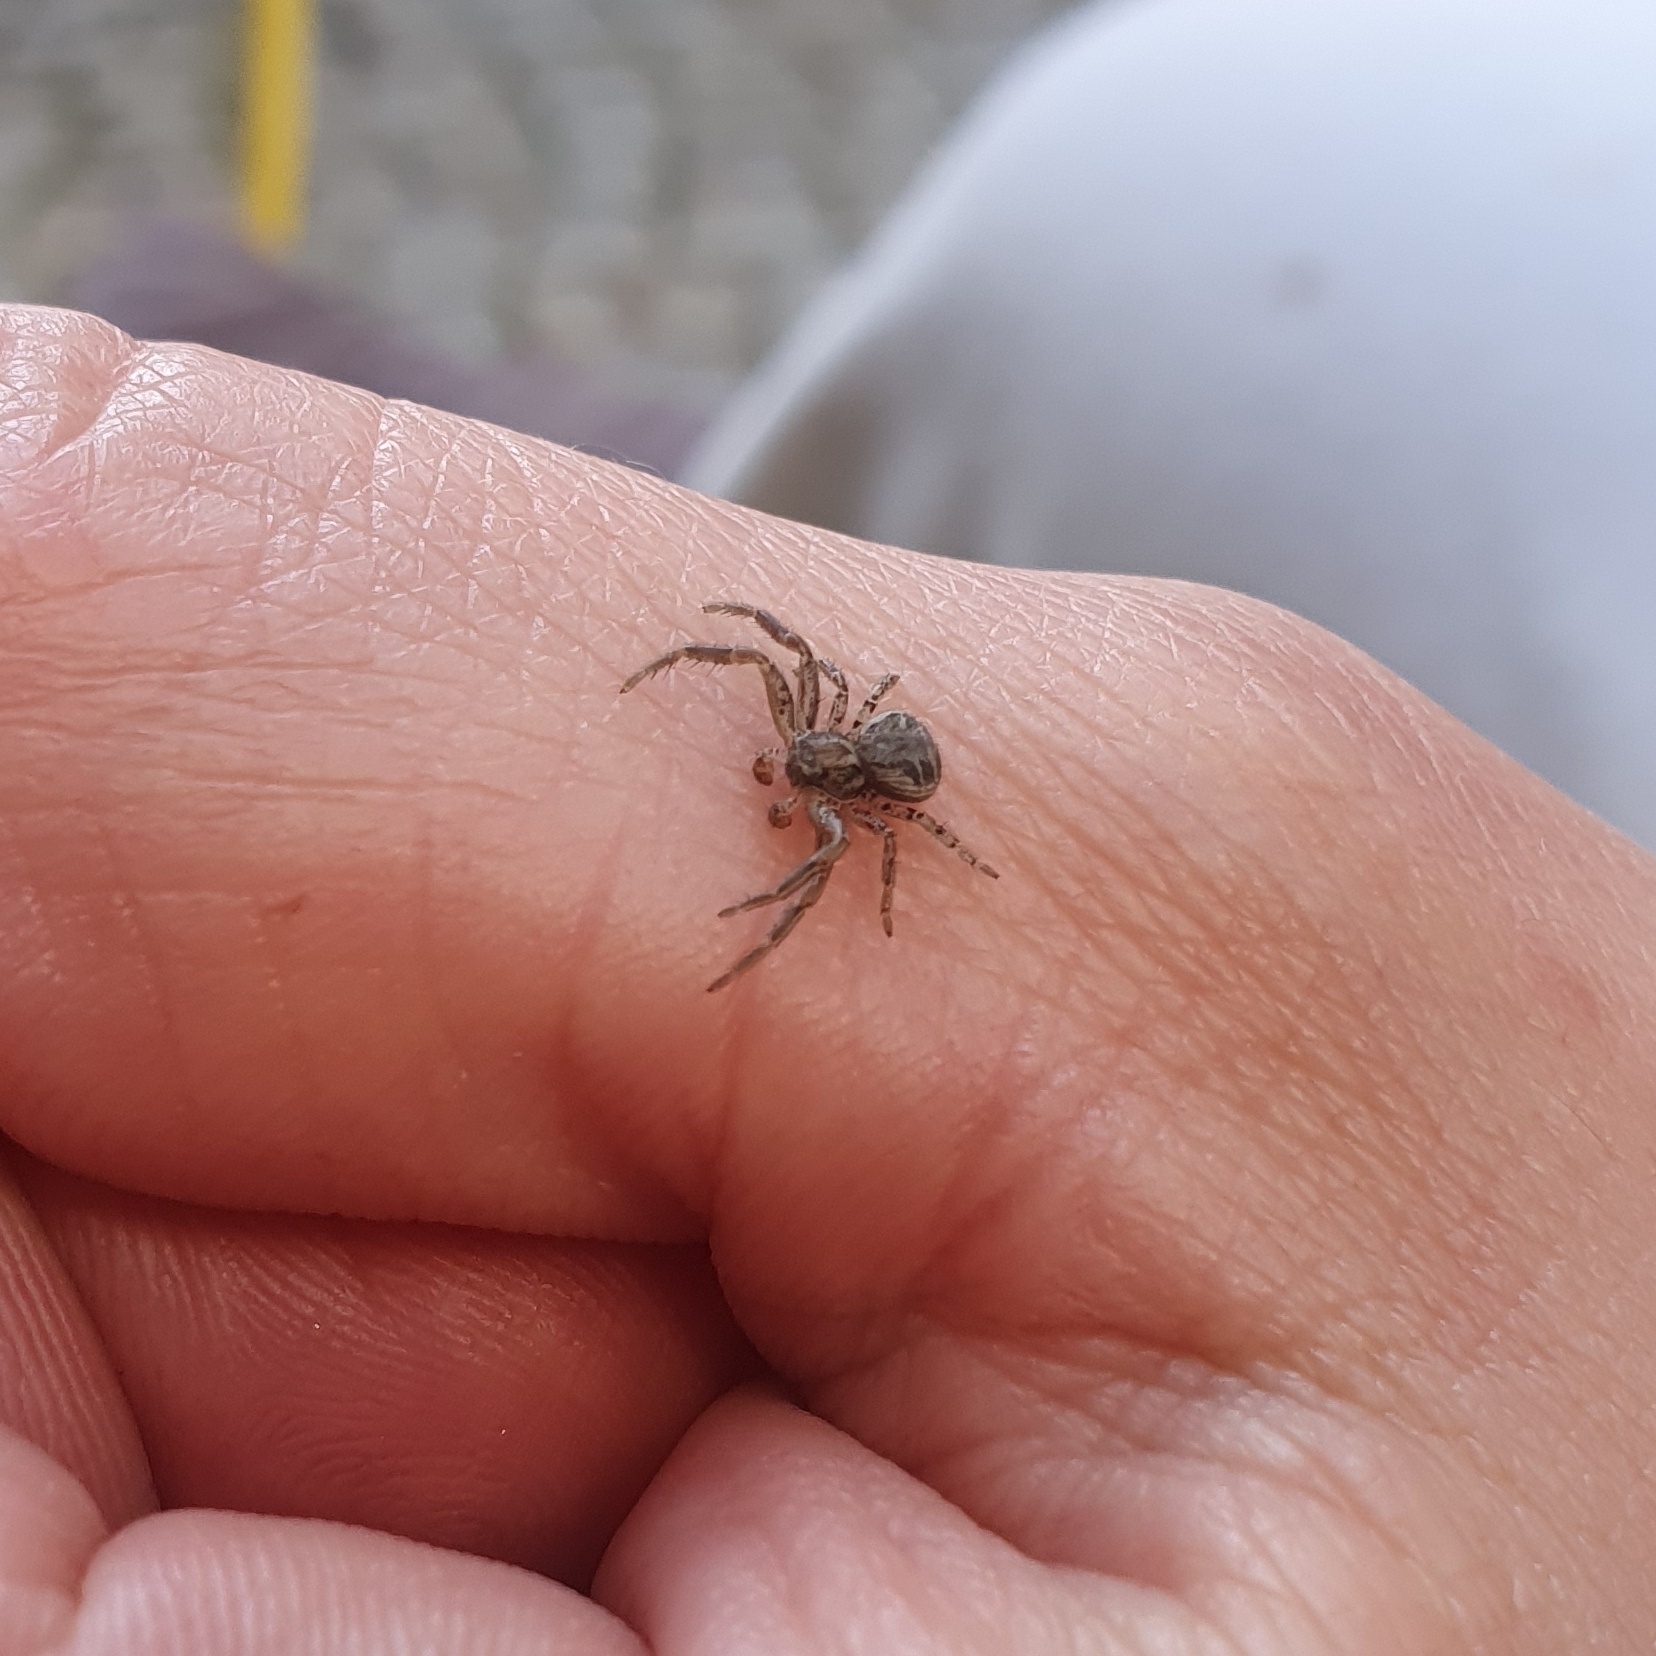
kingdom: Animalia
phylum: Arthropoda
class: Arachnida
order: Araneae
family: Thomisidae
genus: Xysticus
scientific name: Xysticus
